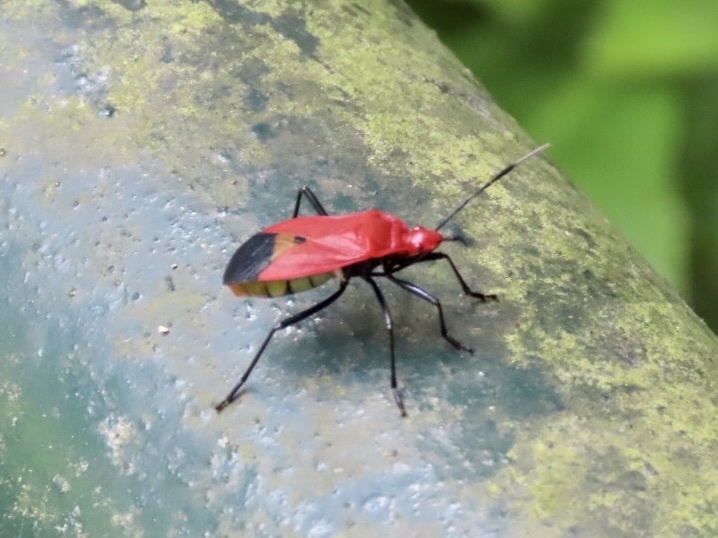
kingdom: Animalia
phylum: Arthropoda
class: Insecta
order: Hemiptera
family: Pyrrhocoridae
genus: Dindymus
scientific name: Dindymus
